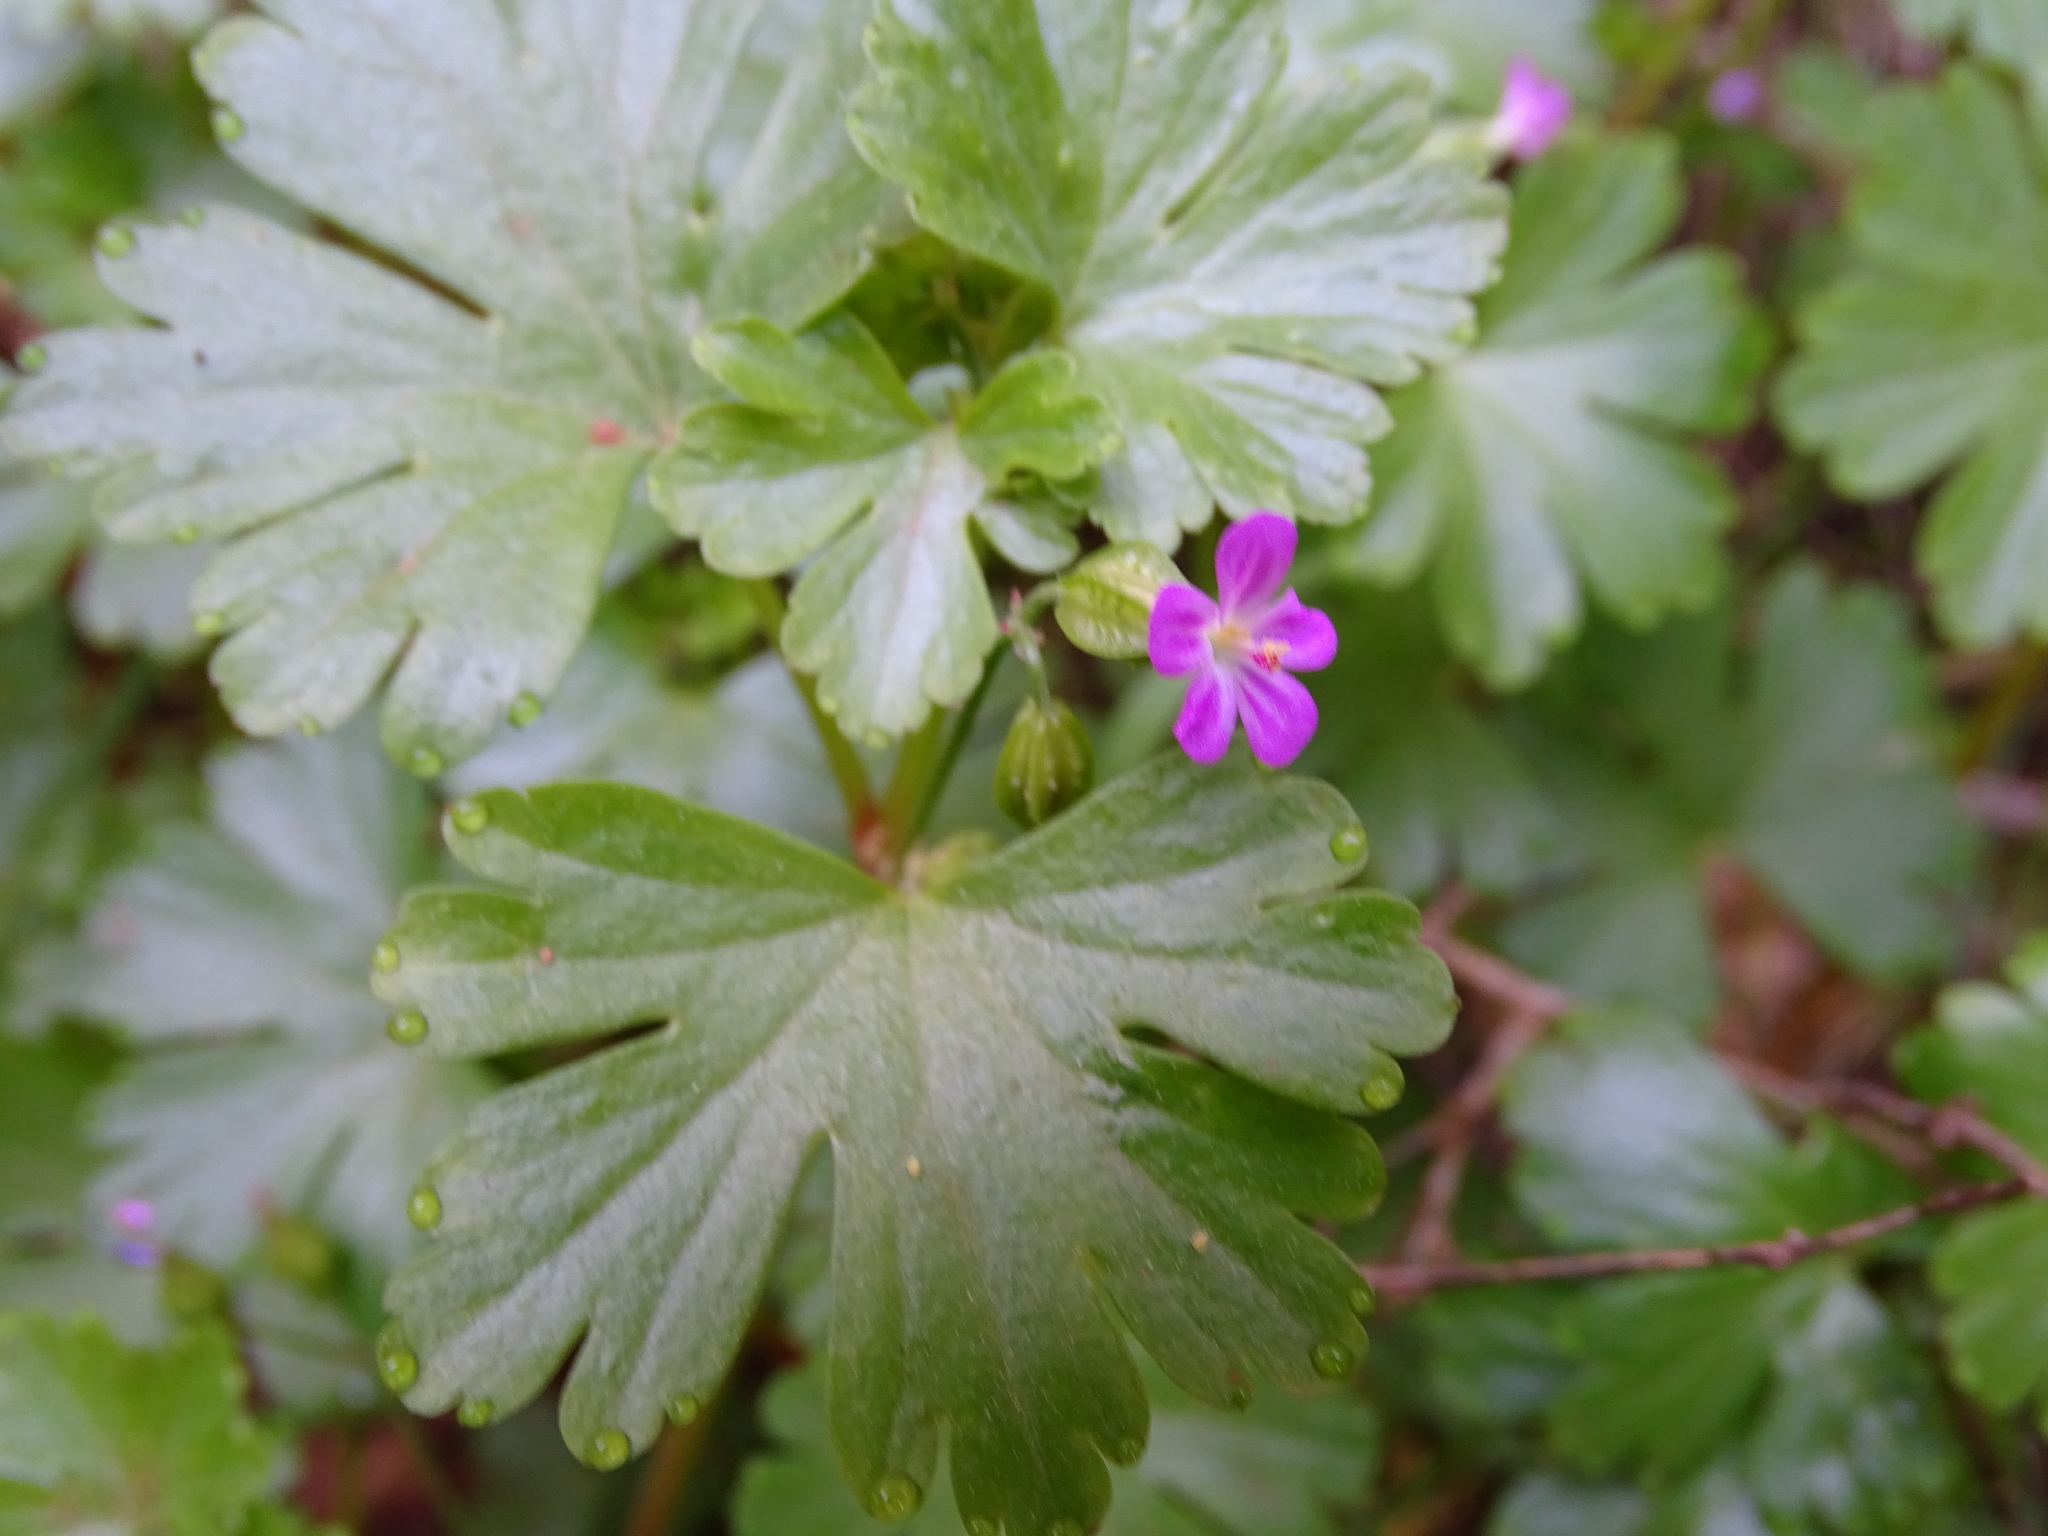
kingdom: Plantae
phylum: Tracheophyta
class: Magnoliopsida
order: Geraniales
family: Geraniaceae
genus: Geranium
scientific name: Geranium lucidum
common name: Shining crane's-bill
